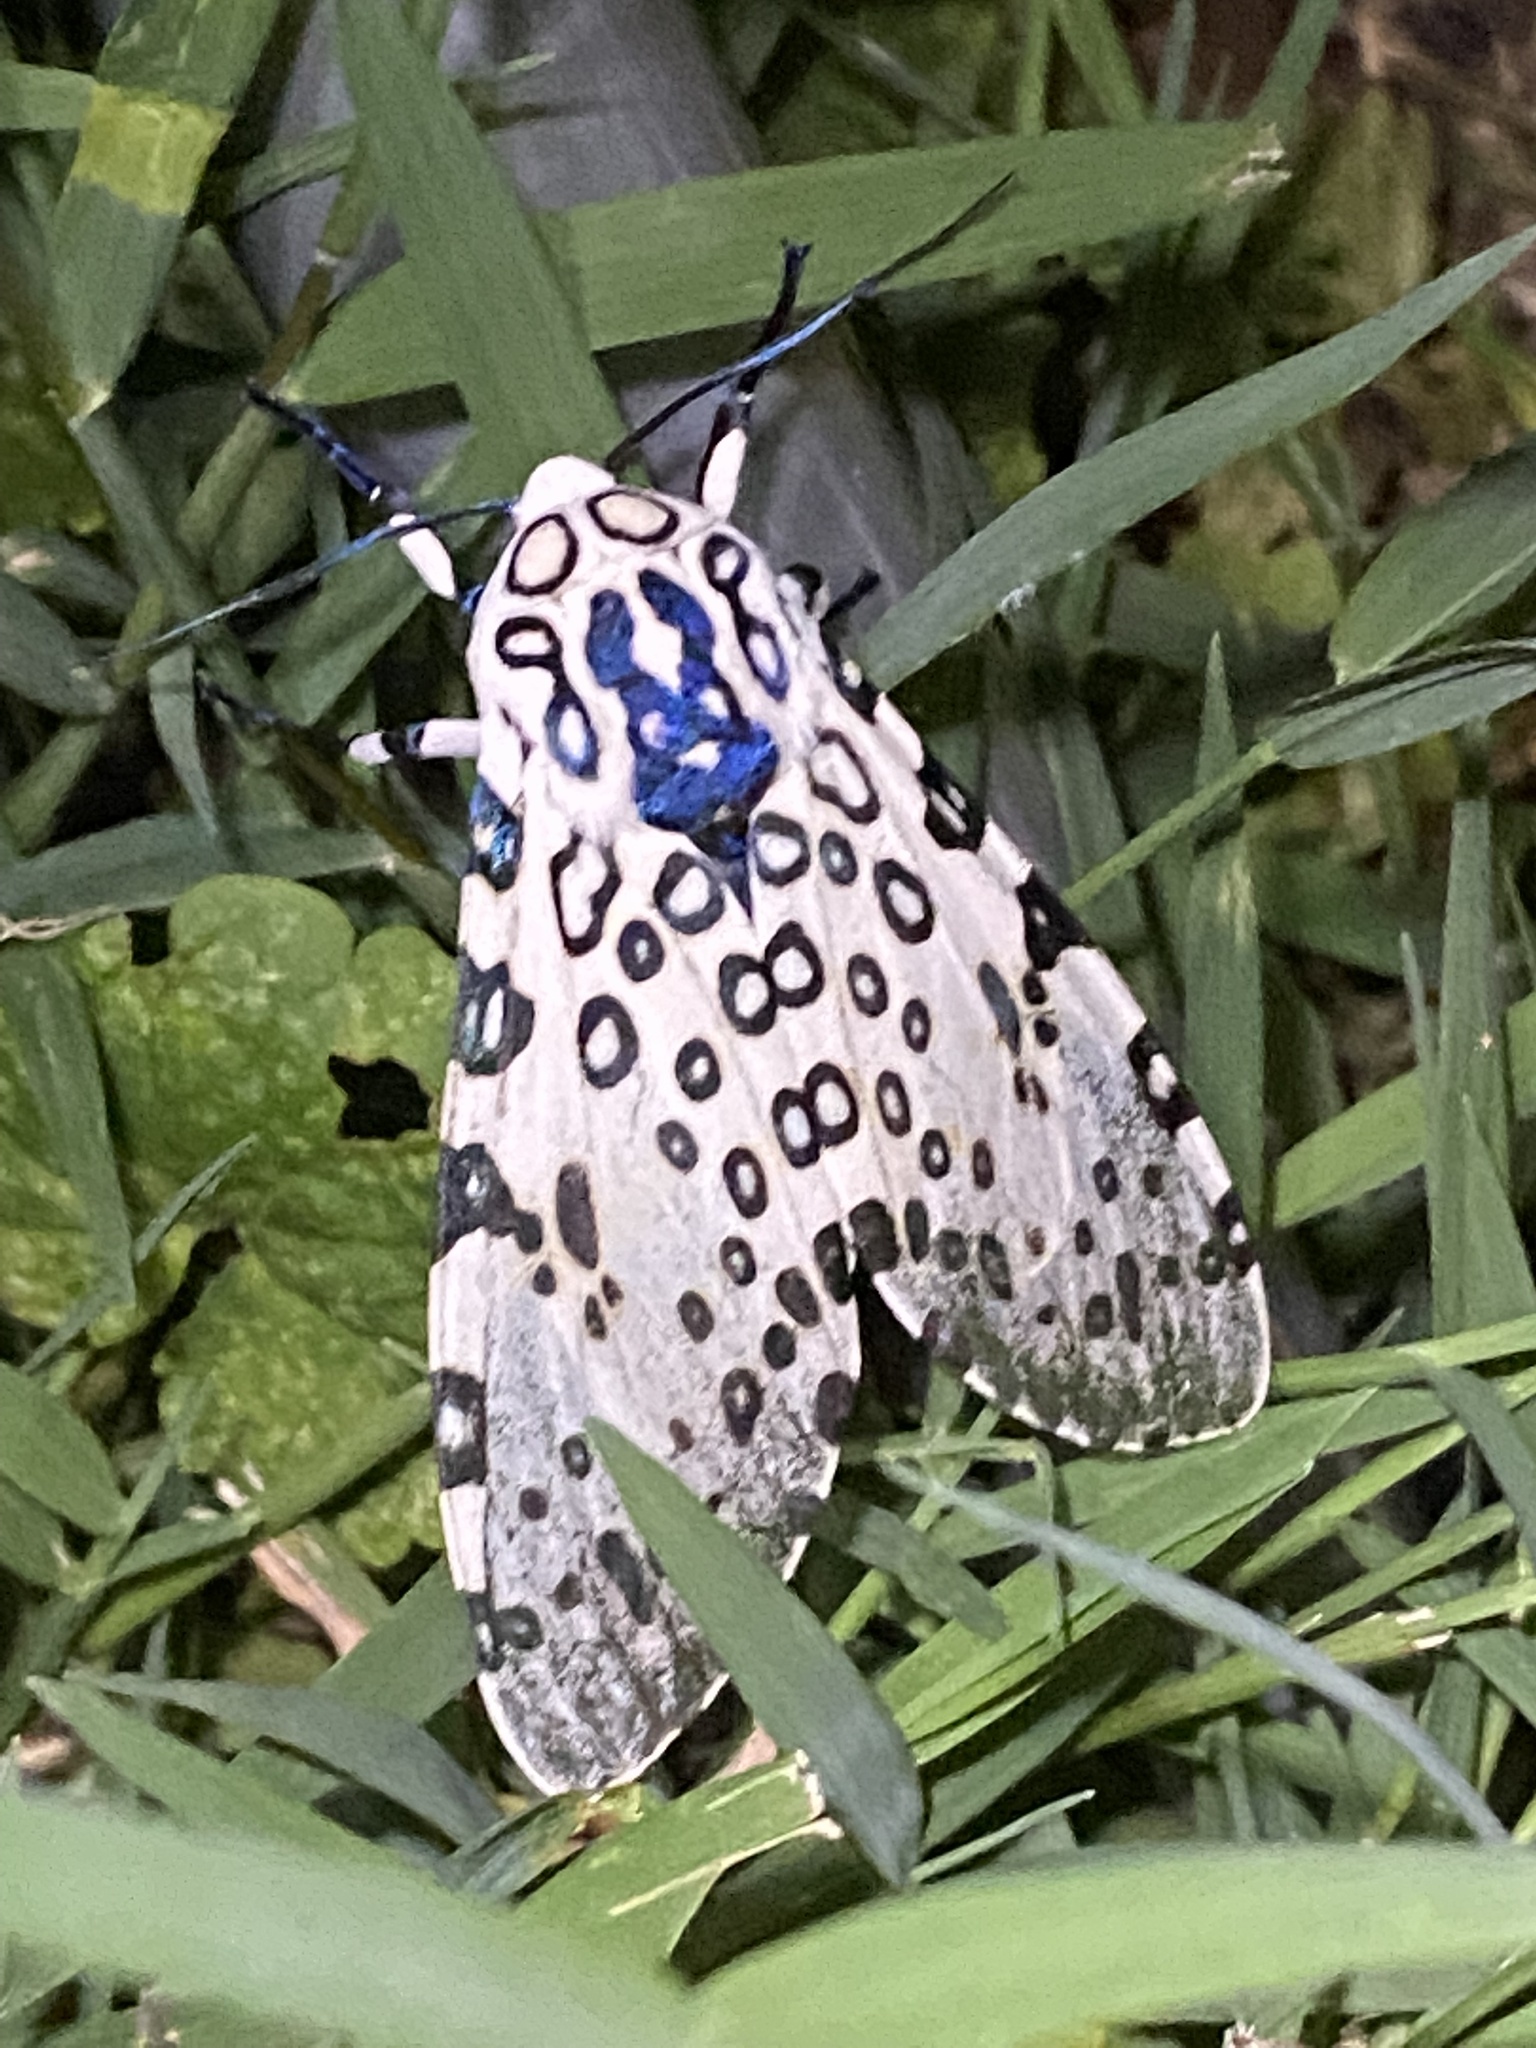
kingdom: Animalia
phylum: Arthropoda
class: Insecta
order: Lepidoptera
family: Erebidae
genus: Hypercompe
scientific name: Hypercompe scribonia
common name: Giant leopard moth
